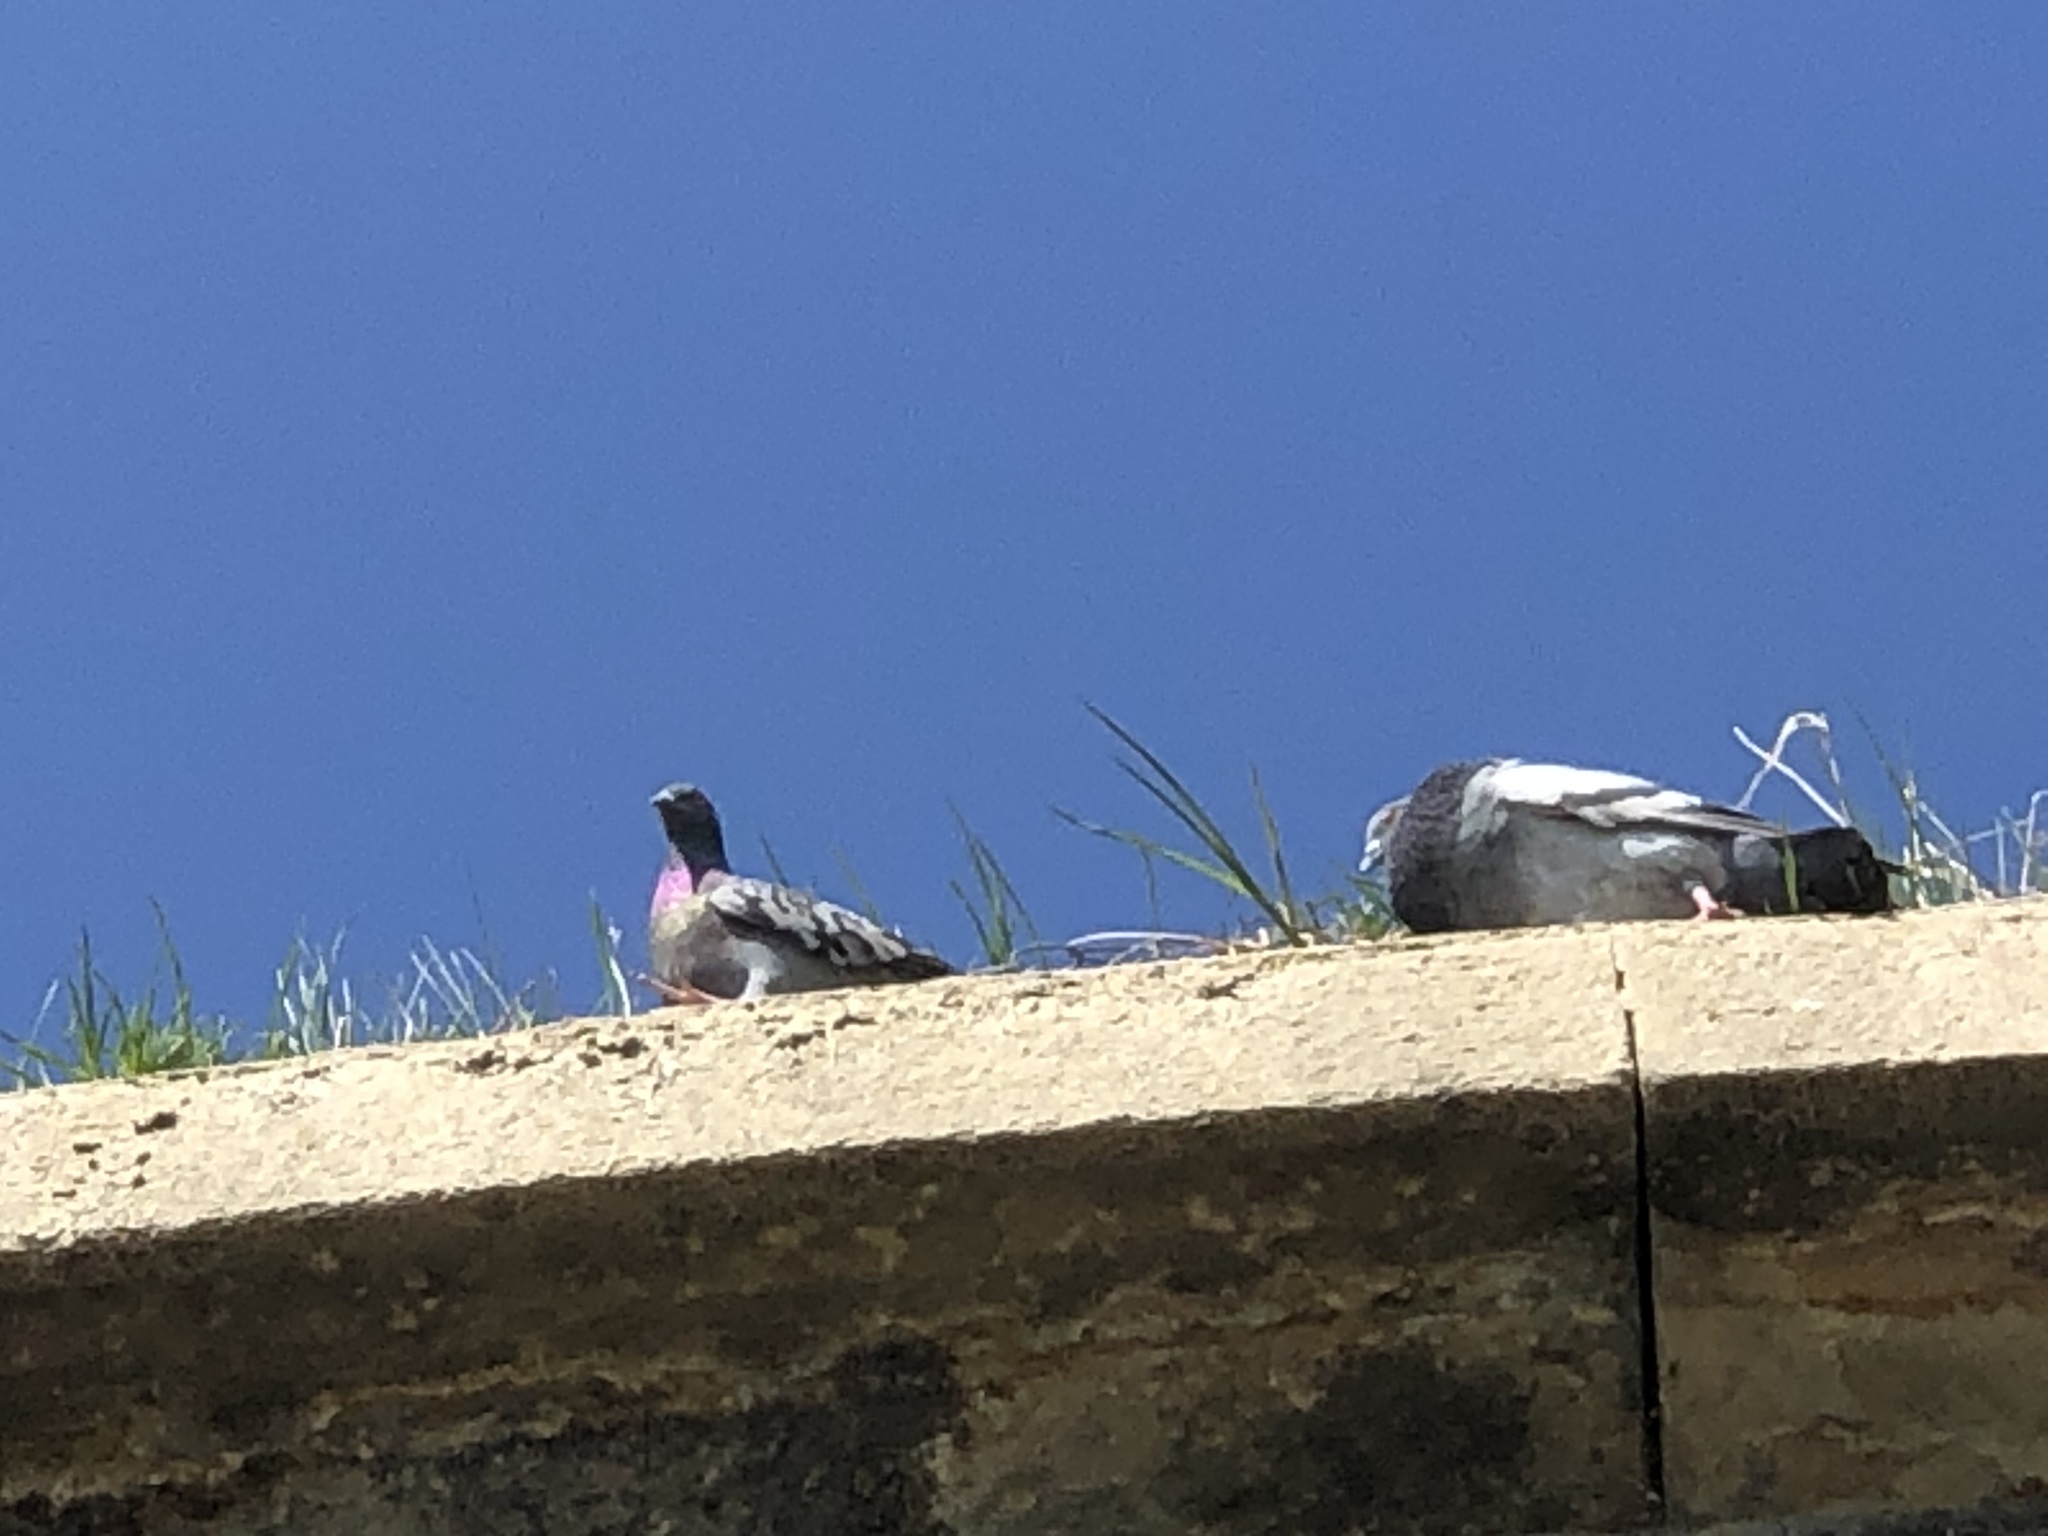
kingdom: Animalia
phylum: Chordata
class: Aves
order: Columbiformes
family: Columbidae
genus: Columba
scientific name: Columba livia
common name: Rock pigeon
